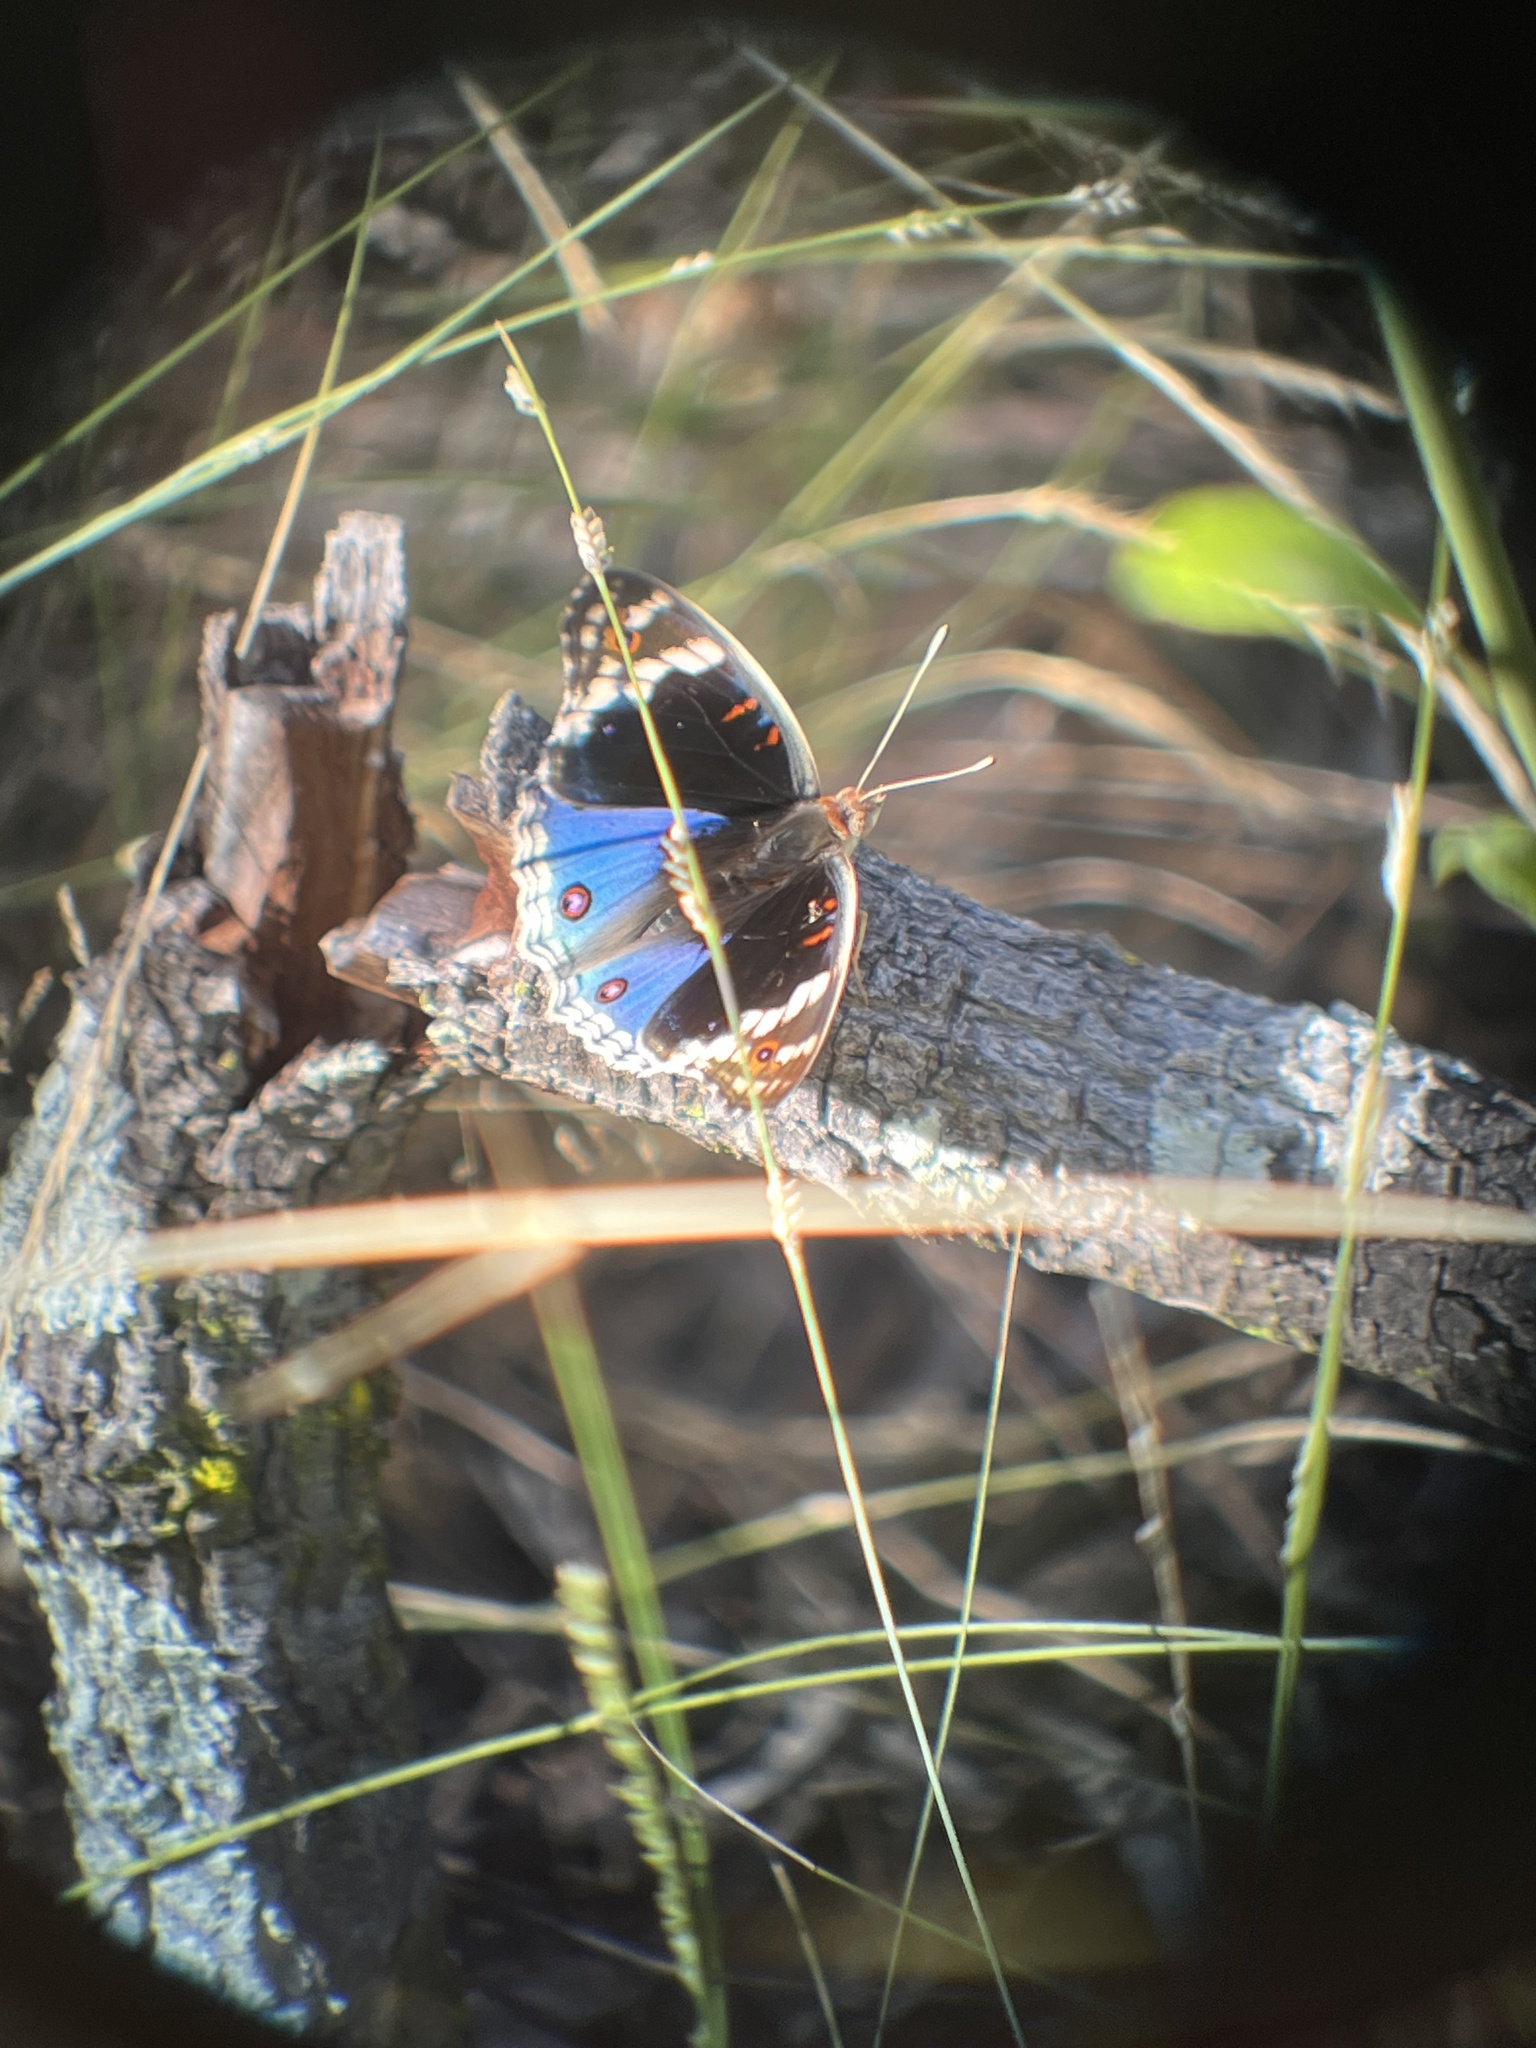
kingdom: Animalia
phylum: Arthropoda
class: Insecta
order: Lepidoptera
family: Nymphalidae
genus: Junonia
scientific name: Junonia orithya
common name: Blue pansy
